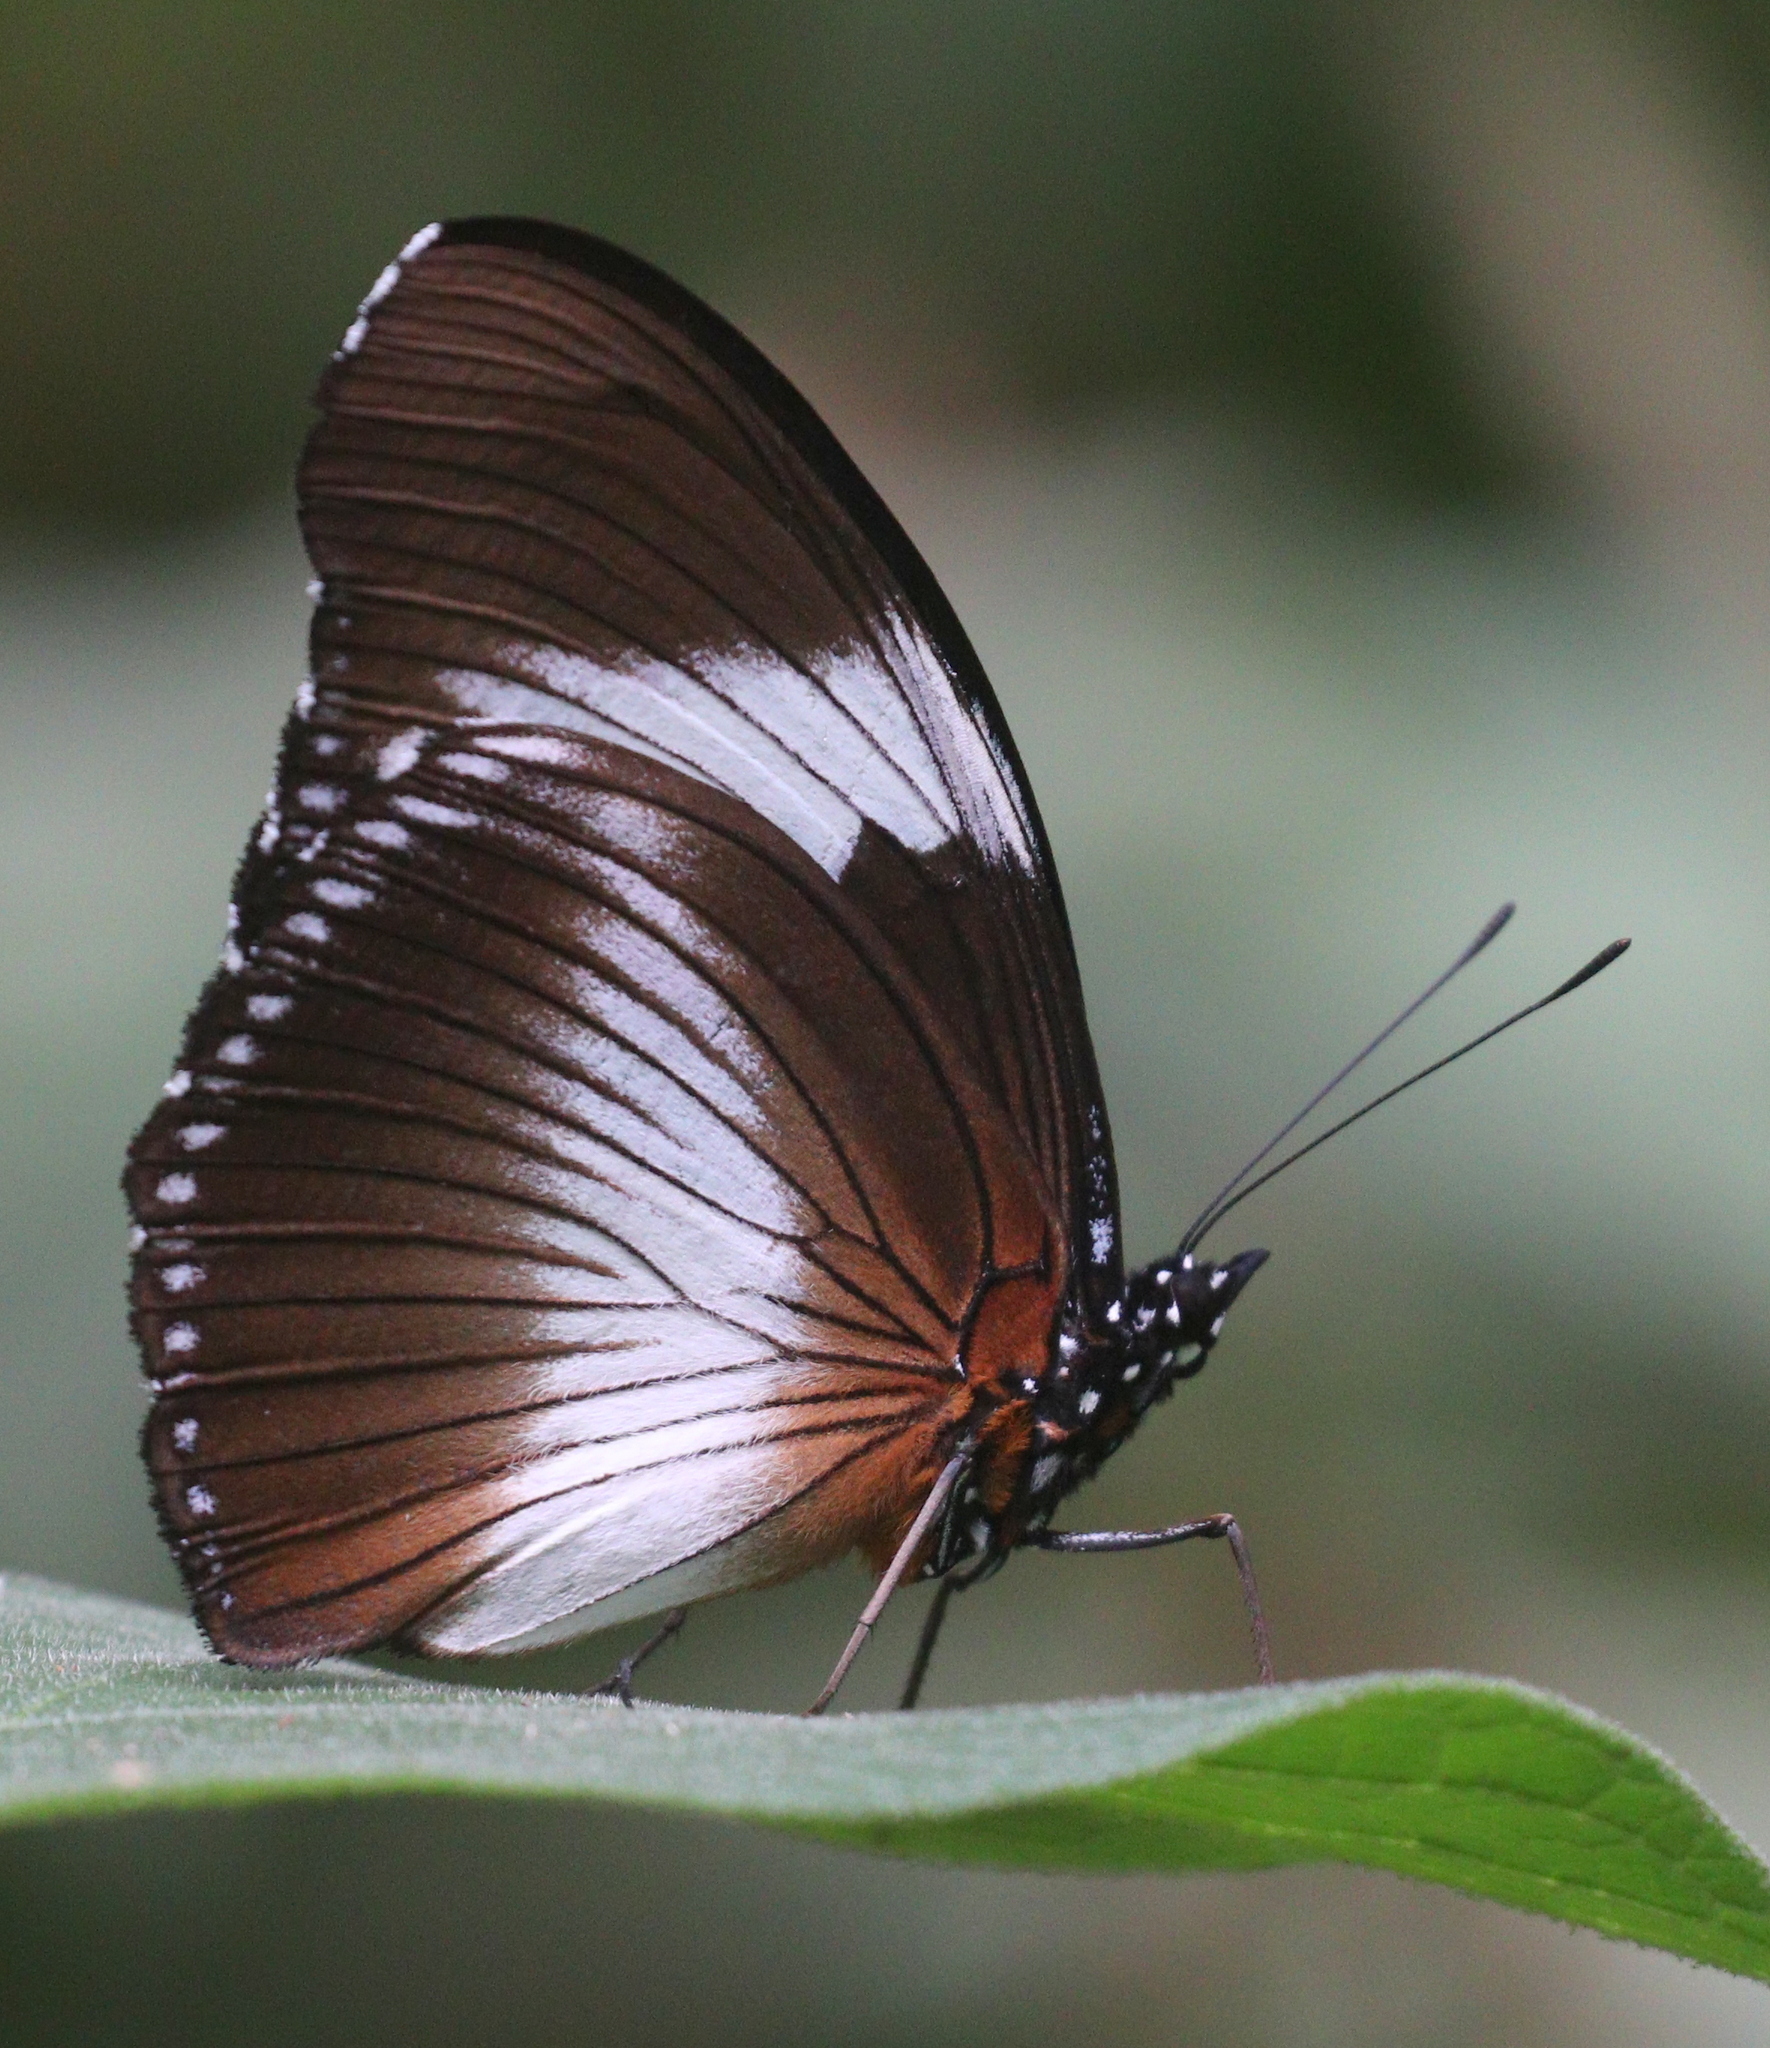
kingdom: Animalia
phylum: Arthropoda
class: Insecta
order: Lepidoptera
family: Nymphalidae
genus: Hypolimnas
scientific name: Hypolimnas monteironis
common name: Scarce blue diadem
